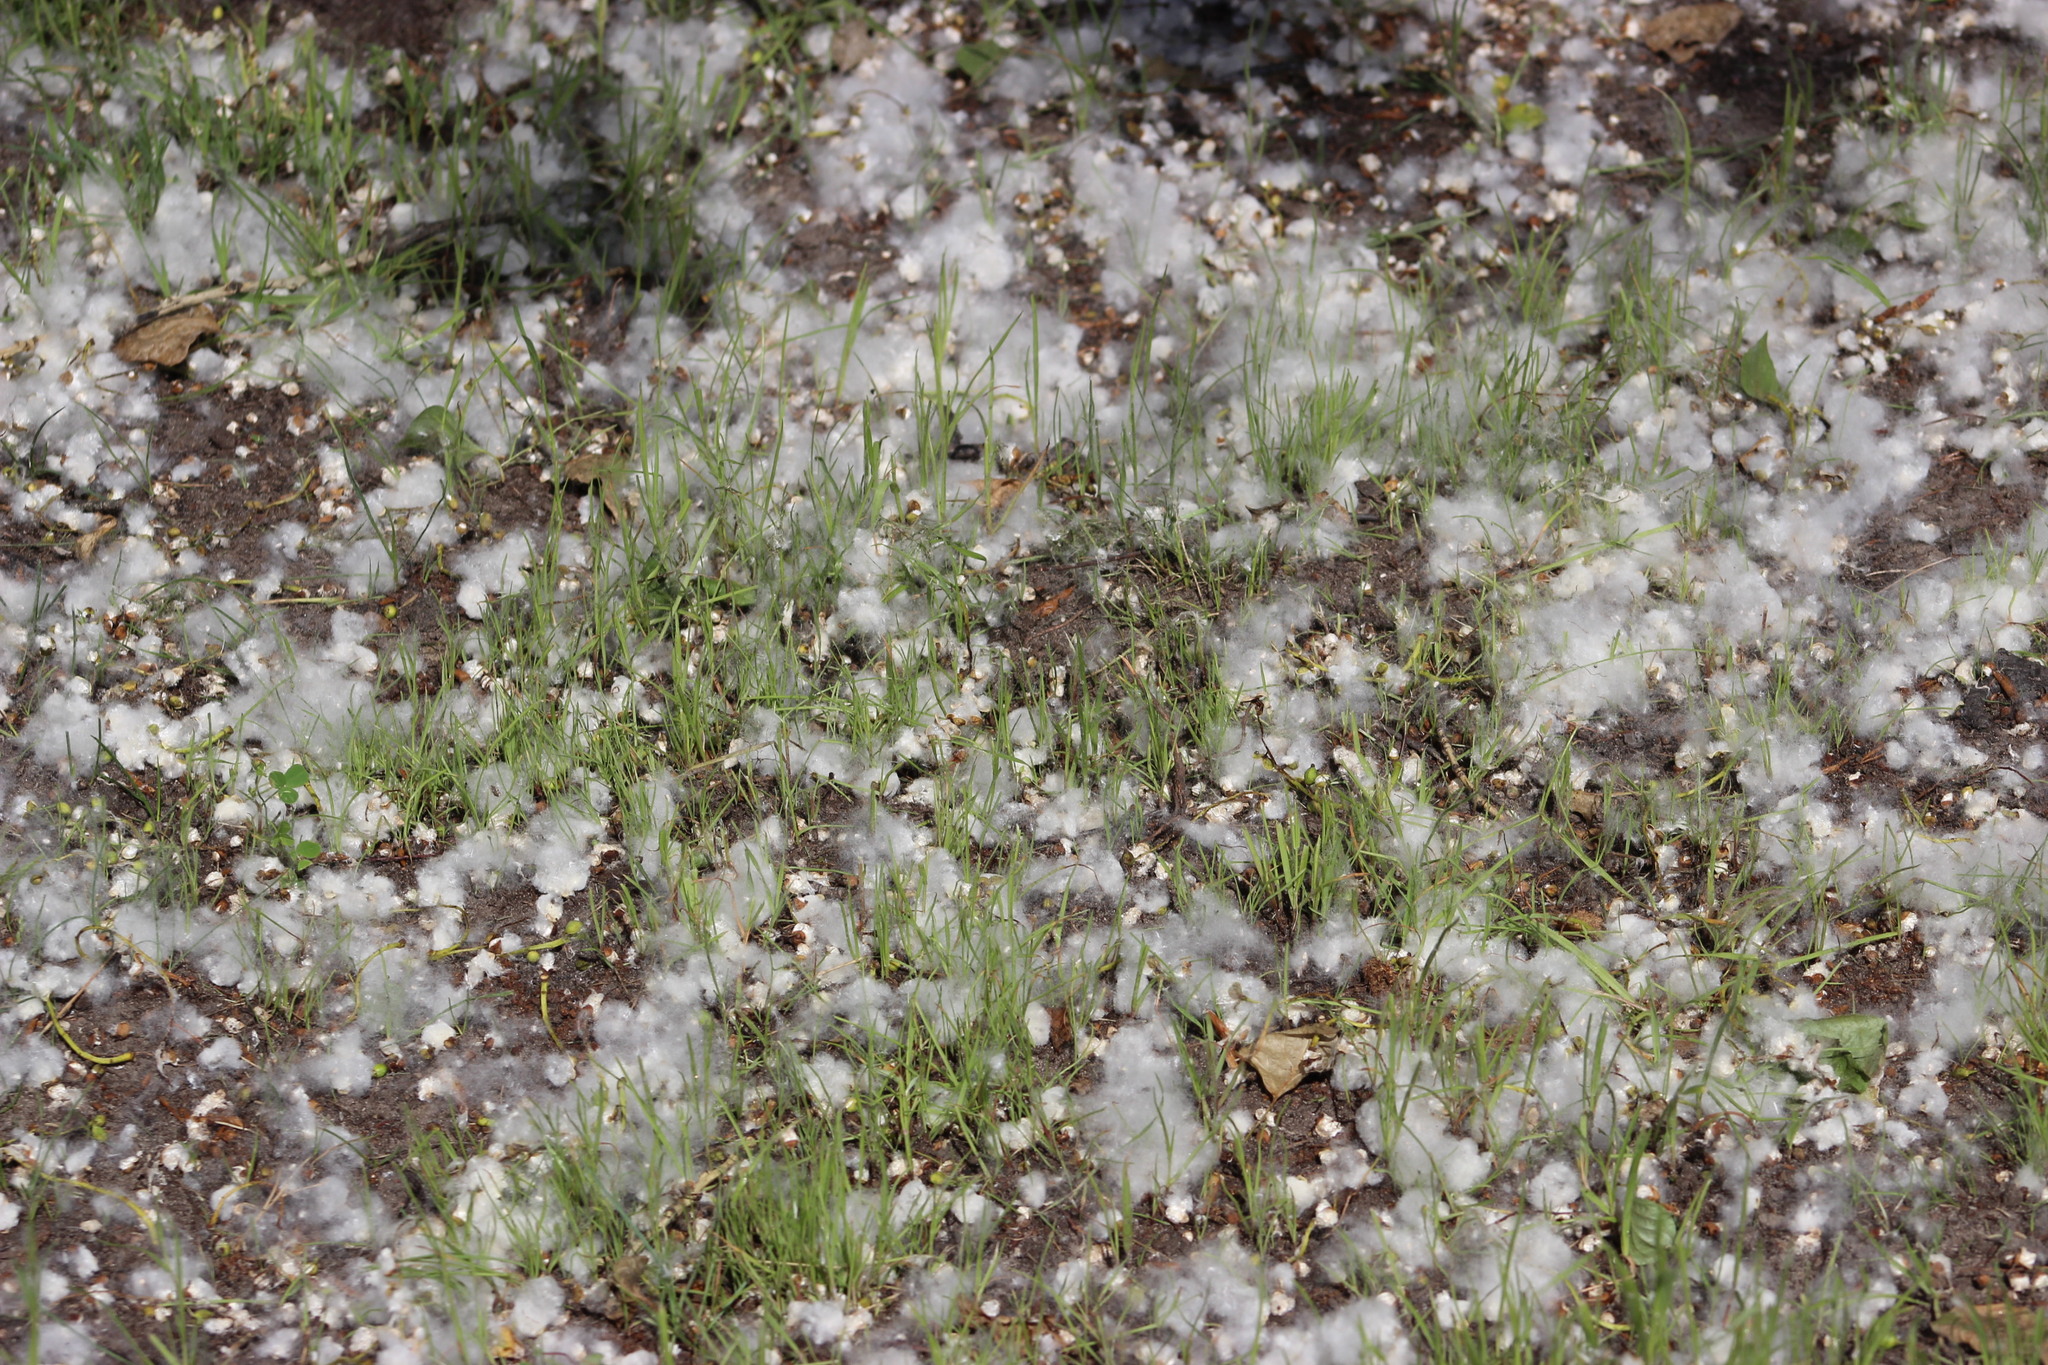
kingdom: Plantae
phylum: Tracheophyta
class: Magnoliopsida
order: Malpighiales
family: Salicaceae
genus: Populus
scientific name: Populus tremula
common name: European aspen
